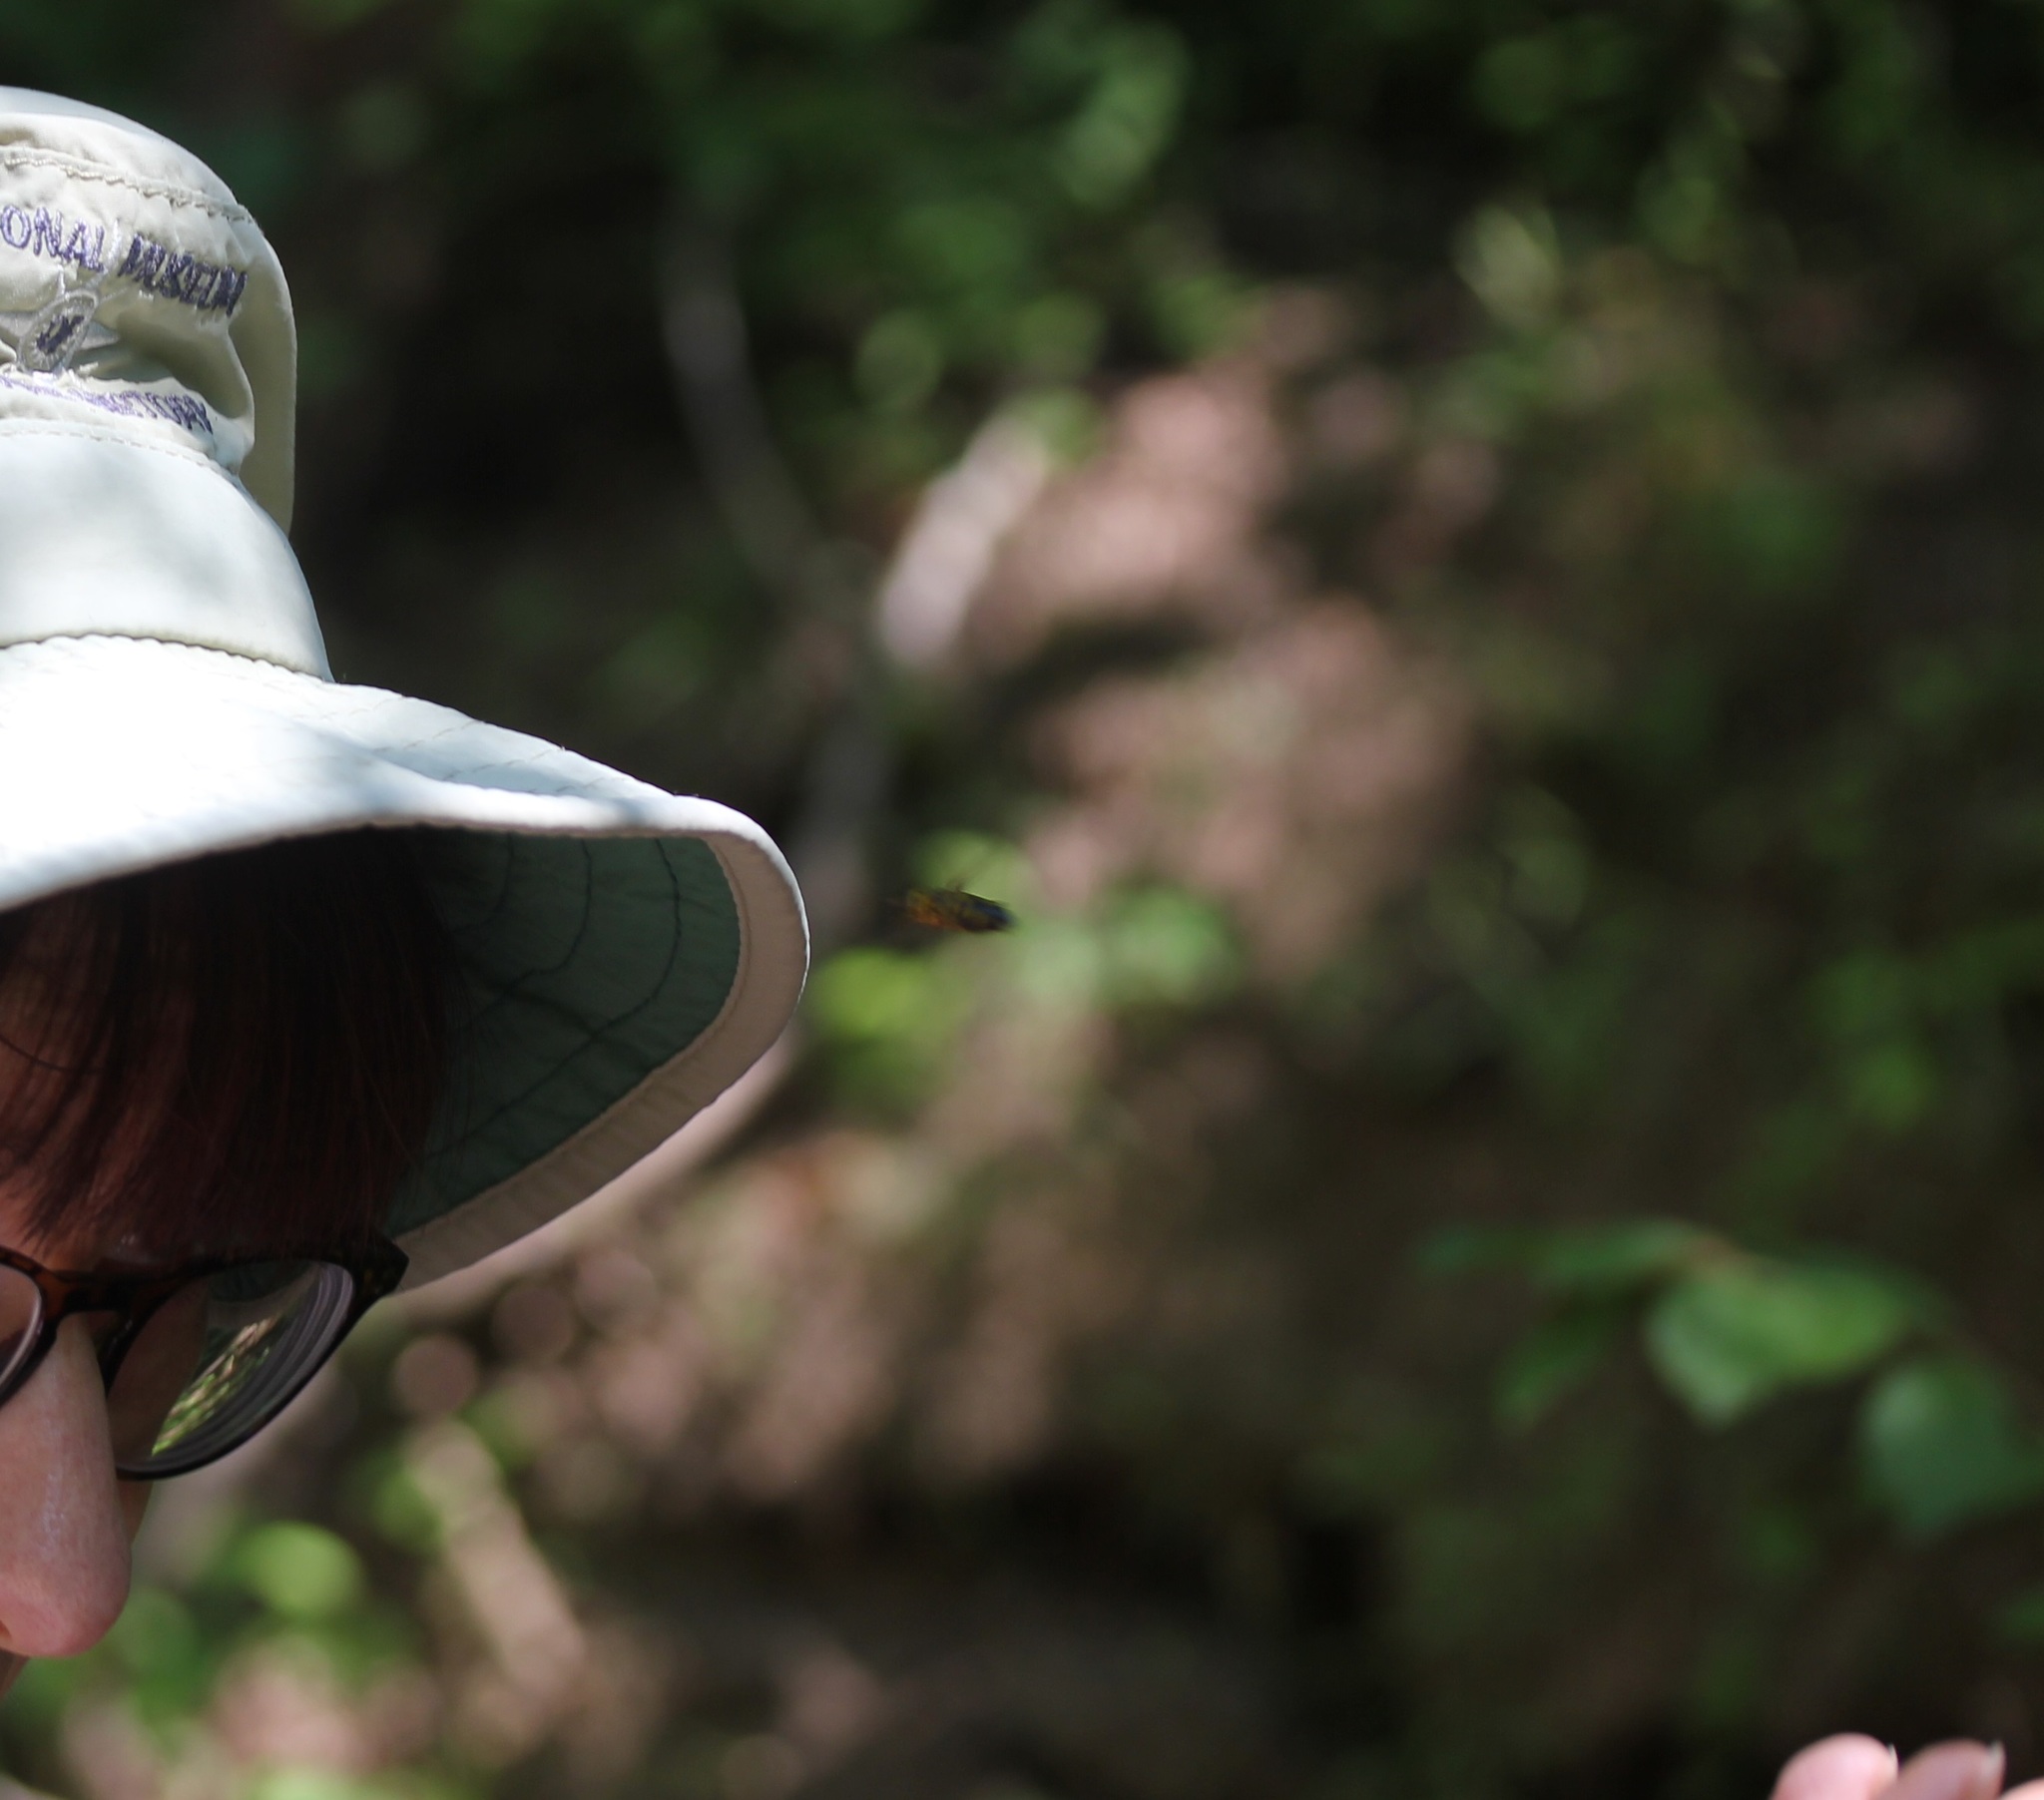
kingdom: Animalia
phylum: Arthropoda
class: Insecta
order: Diptera
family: Syrphidae
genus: Meromacrus
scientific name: Meromacrus acutus
